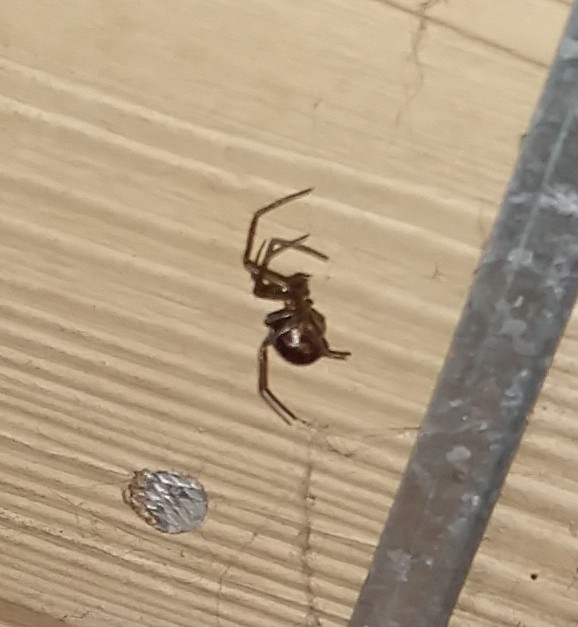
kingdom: Animalia
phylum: Arthropoda
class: Arachnida
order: Araneae
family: Theridiidae
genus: Steatoda
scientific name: Steatoda grossa
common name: False black widow
